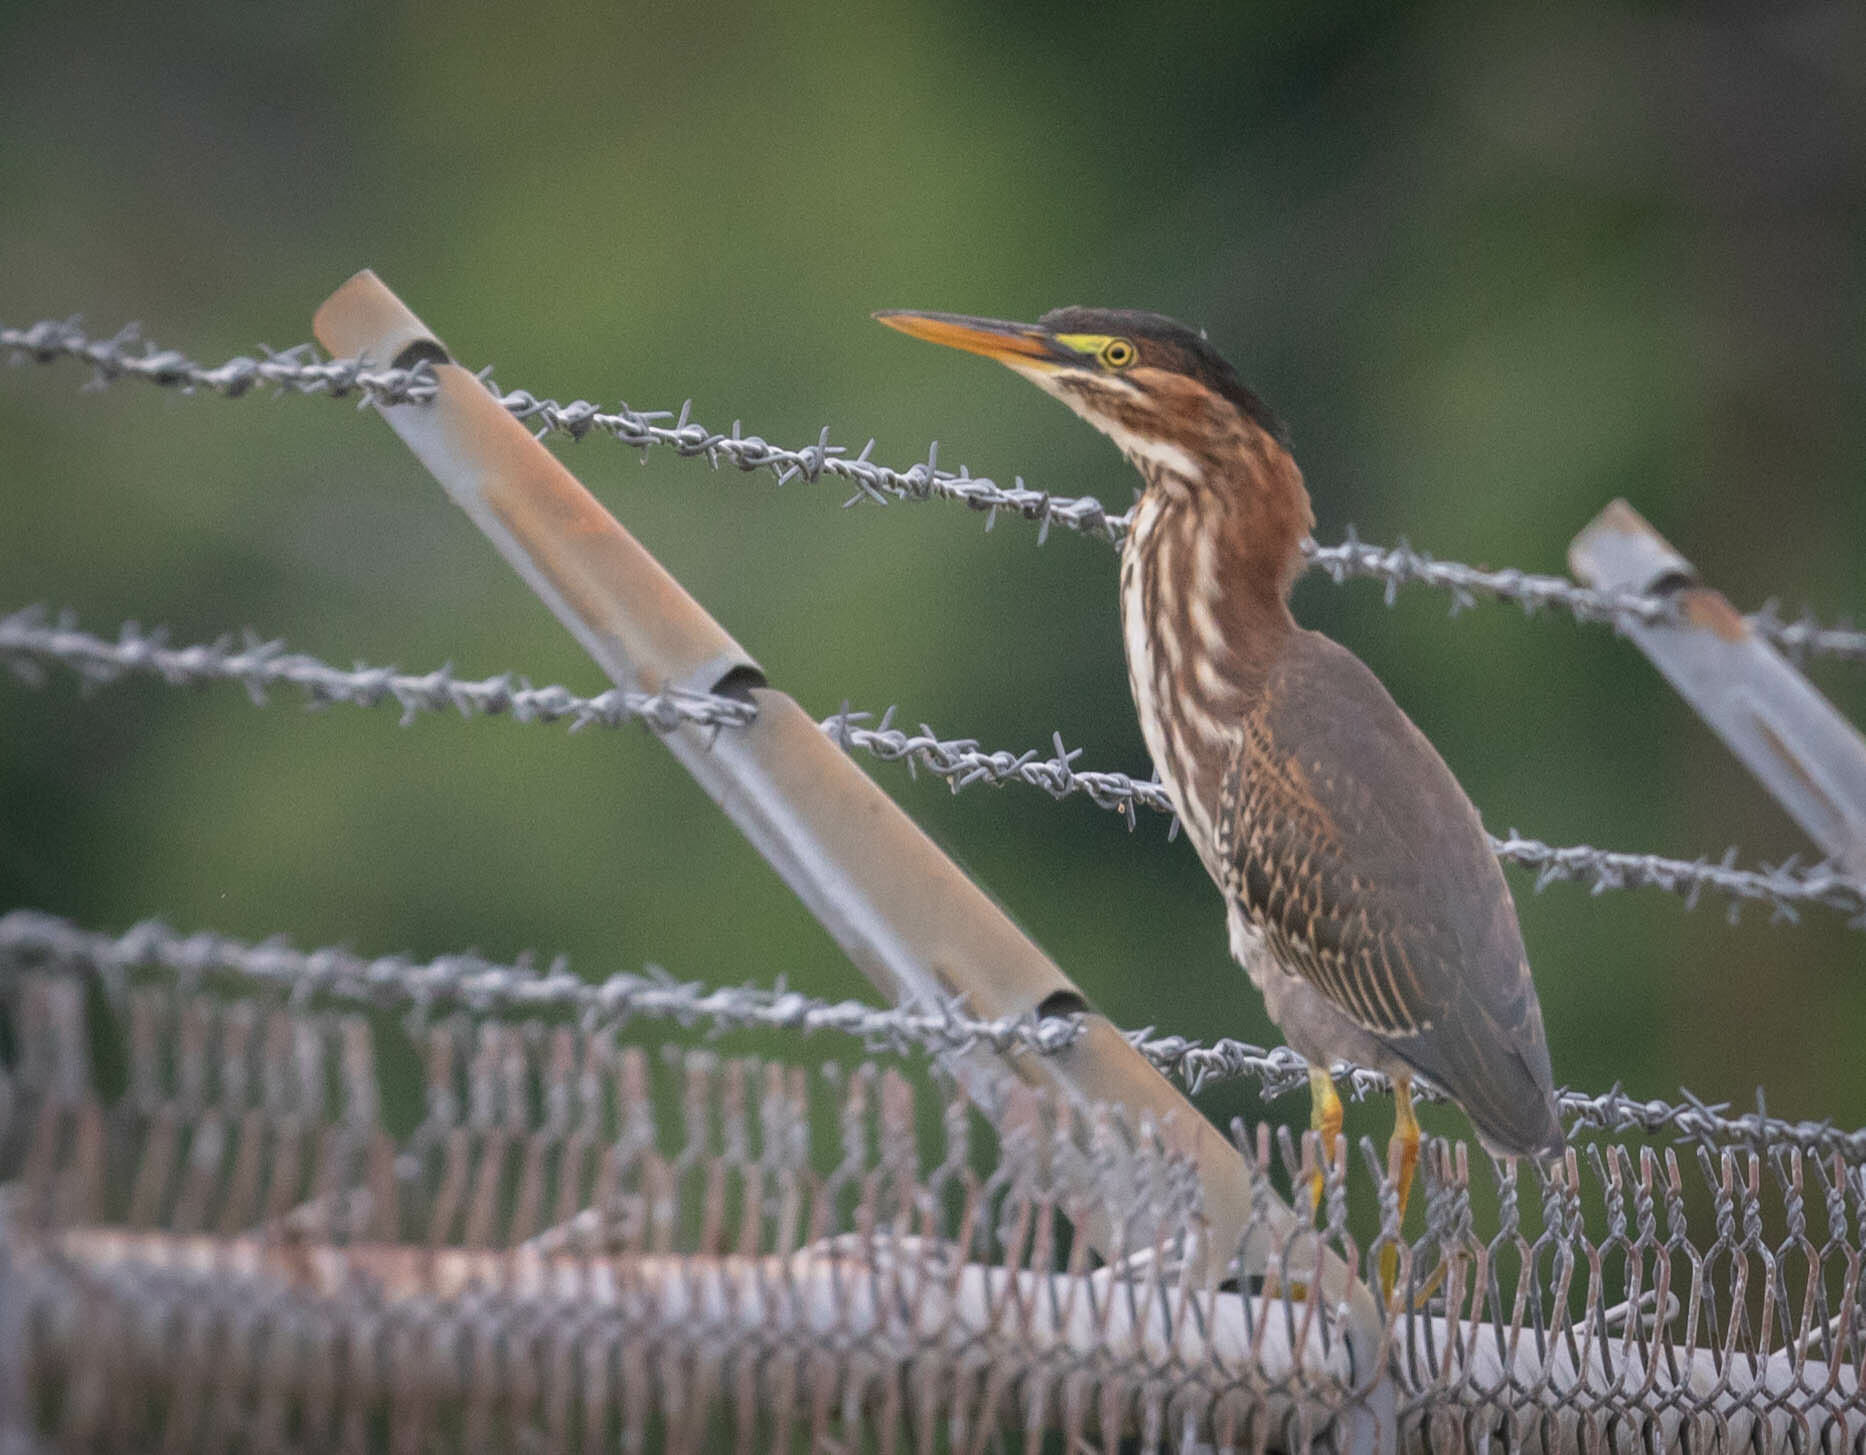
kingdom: Animalia
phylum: Chordata
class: Aves
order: Pelecaniformes
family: Ardeidae
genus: Butorides
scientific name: Butorides virescens
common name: Green heron
